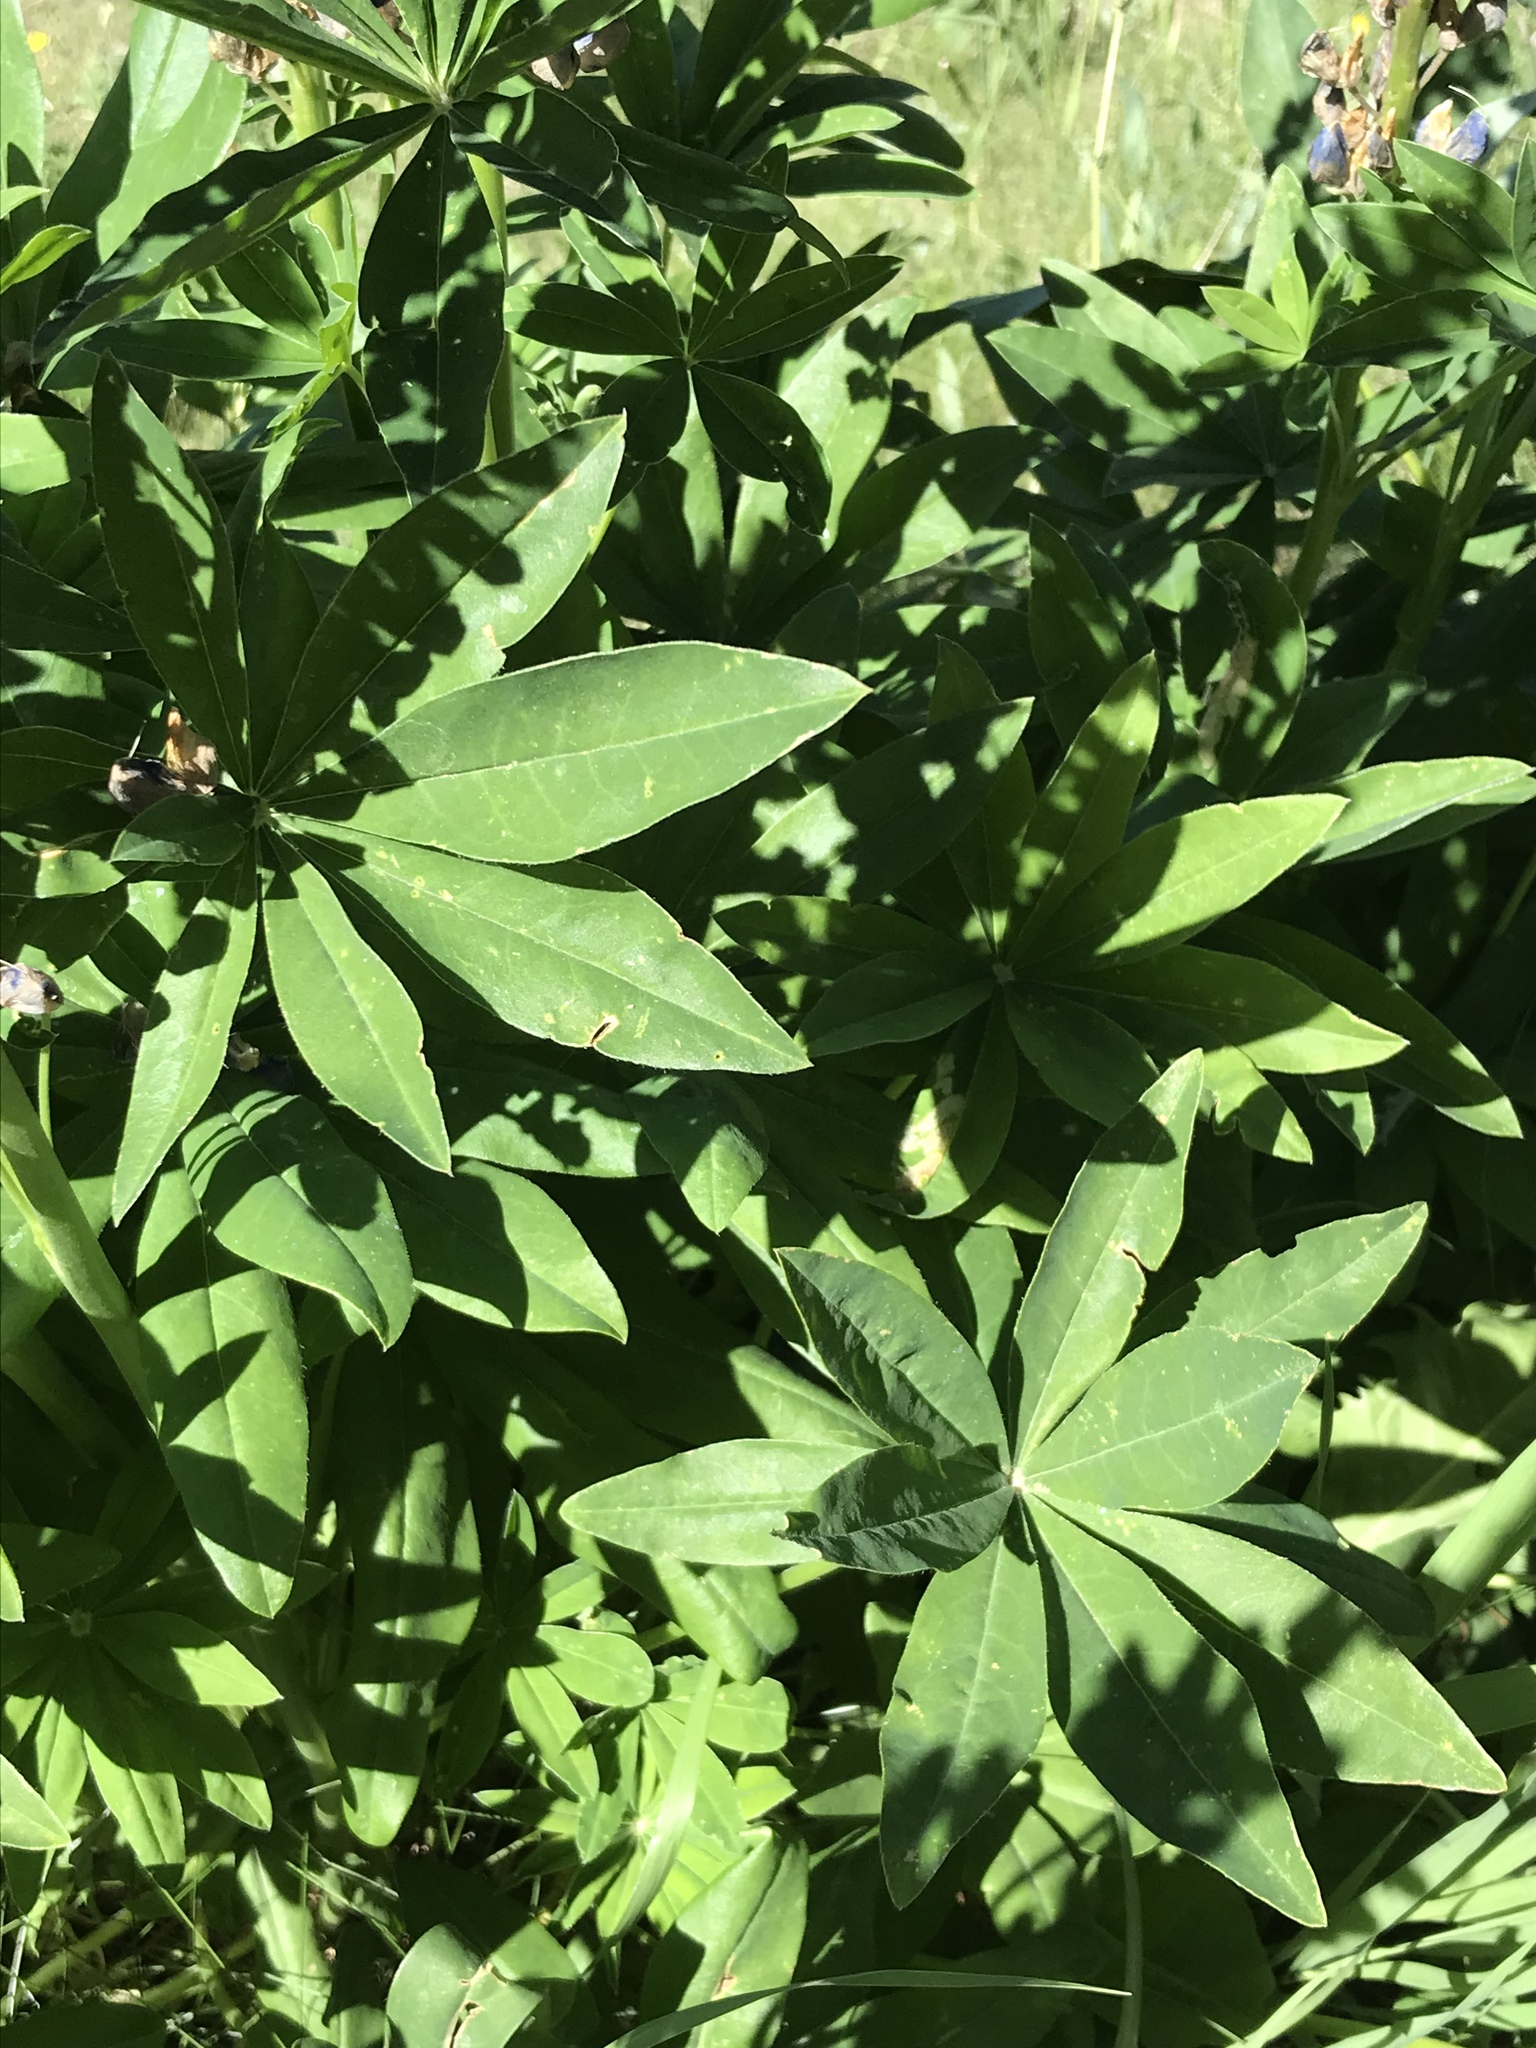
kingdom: Plantae
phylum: Tracheophyta
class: Magnoliopsida
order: Fabales
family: Fabaceae
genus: Lupinus
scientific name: Lupinus polyphyllus
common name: Garden lupin
